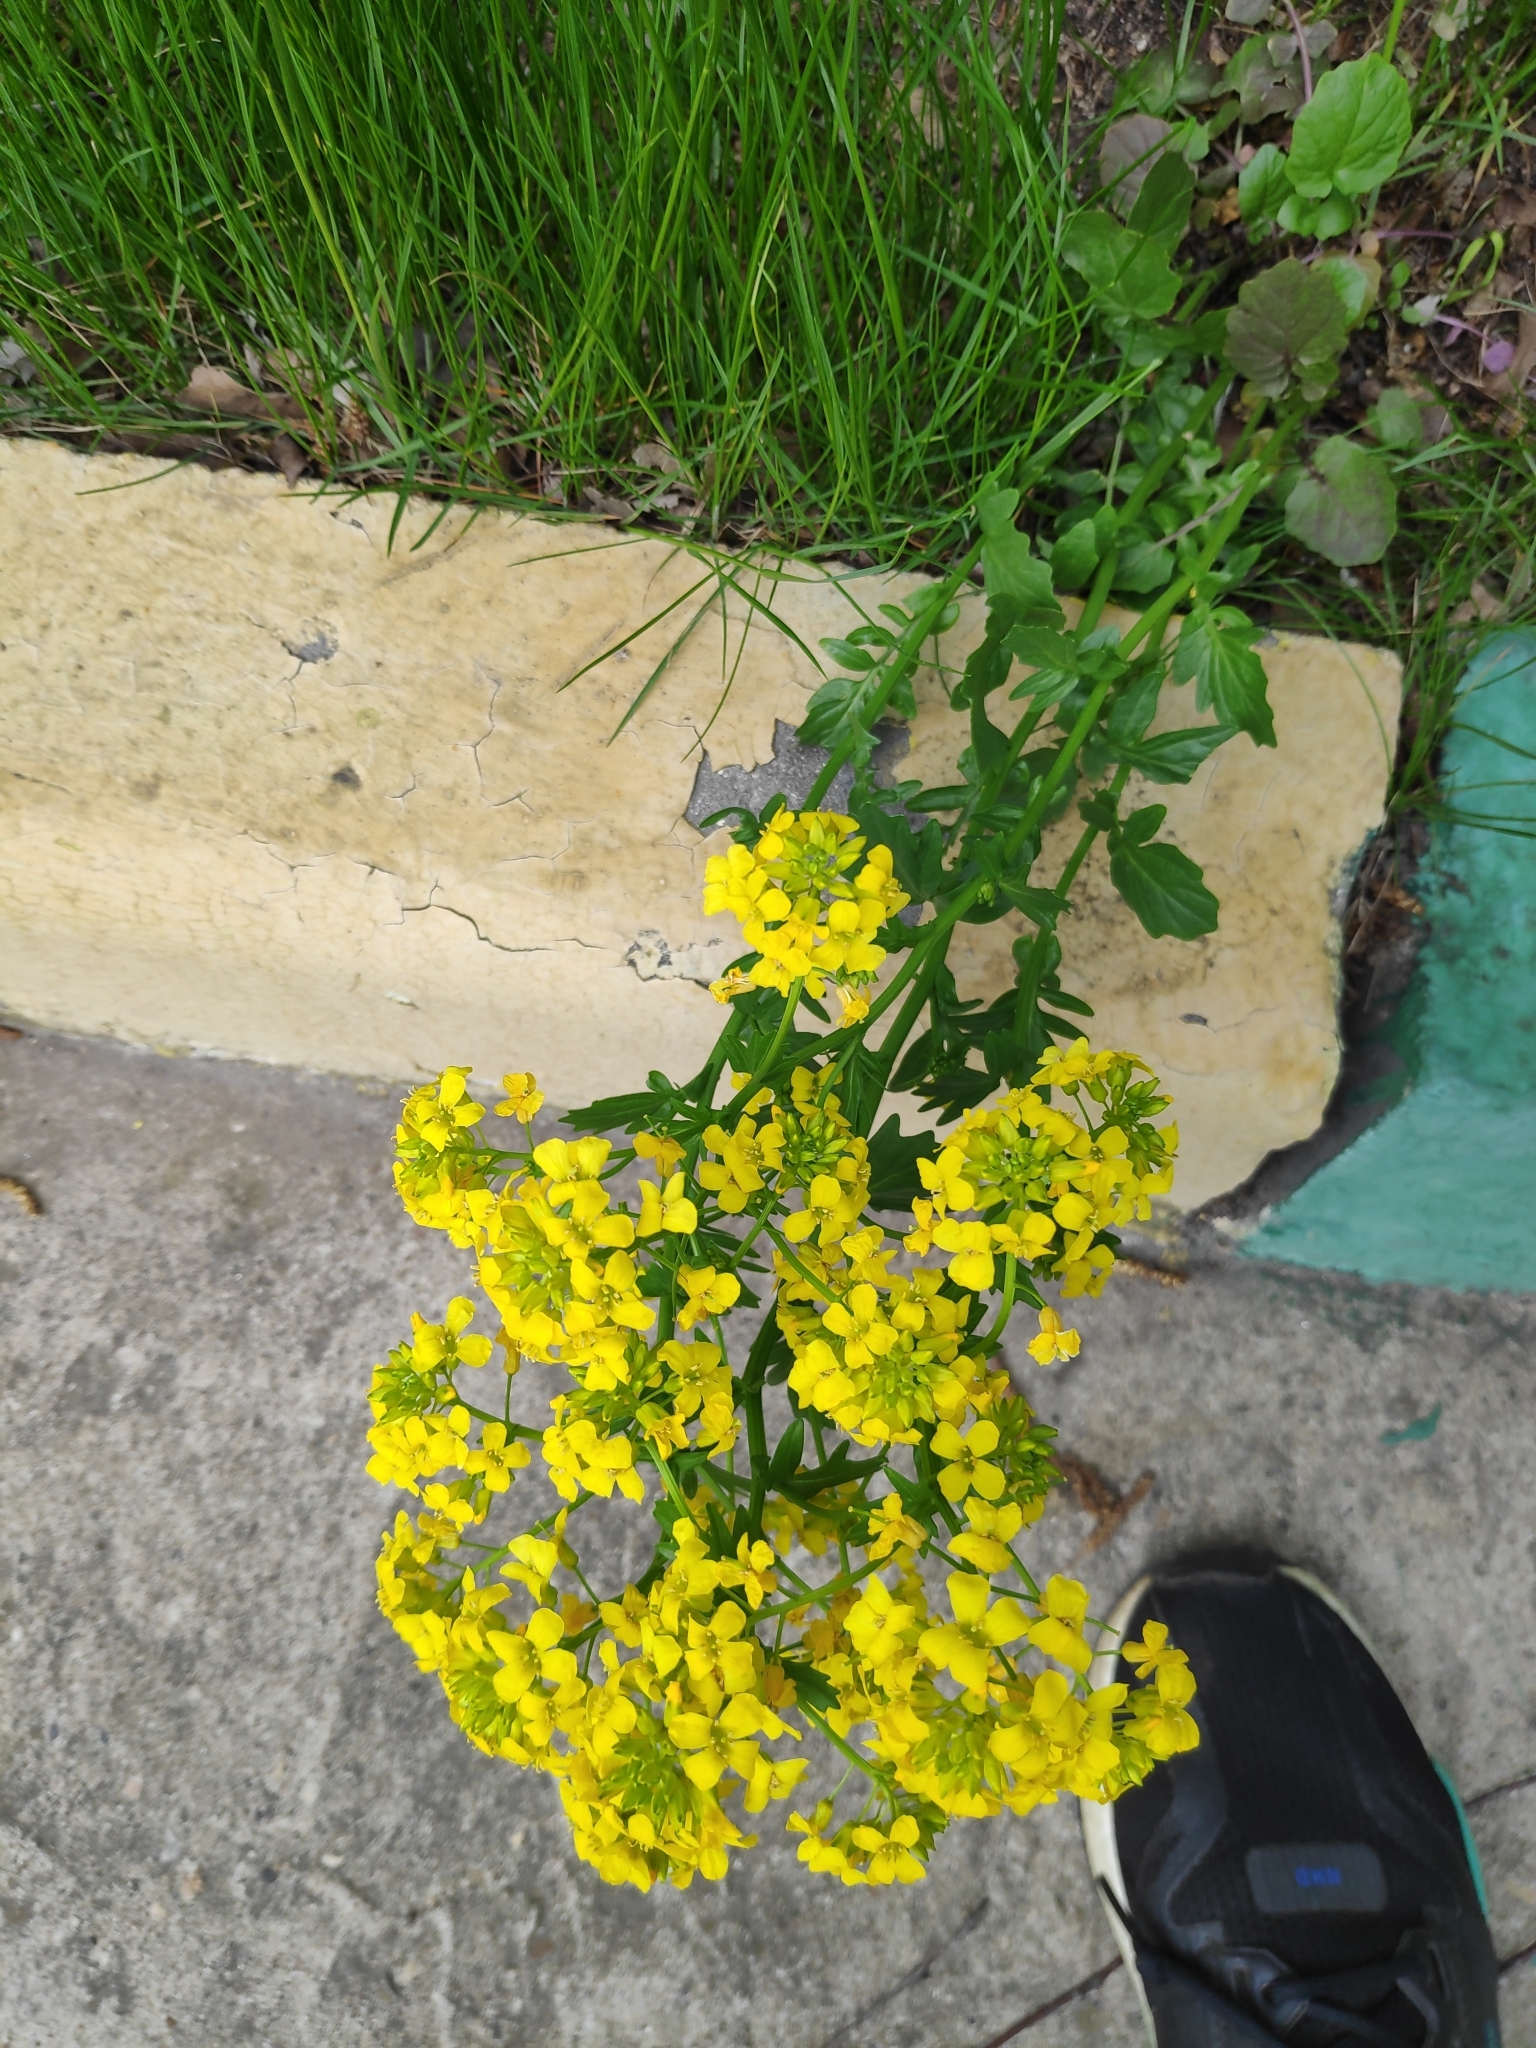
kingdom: Plantae
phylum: Tracheophyta
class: Magnoliopsida
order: Brassicales
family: Brassicaceae
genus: Barbarea
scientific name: Barbarea vulgaris
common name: Cressy-greens
